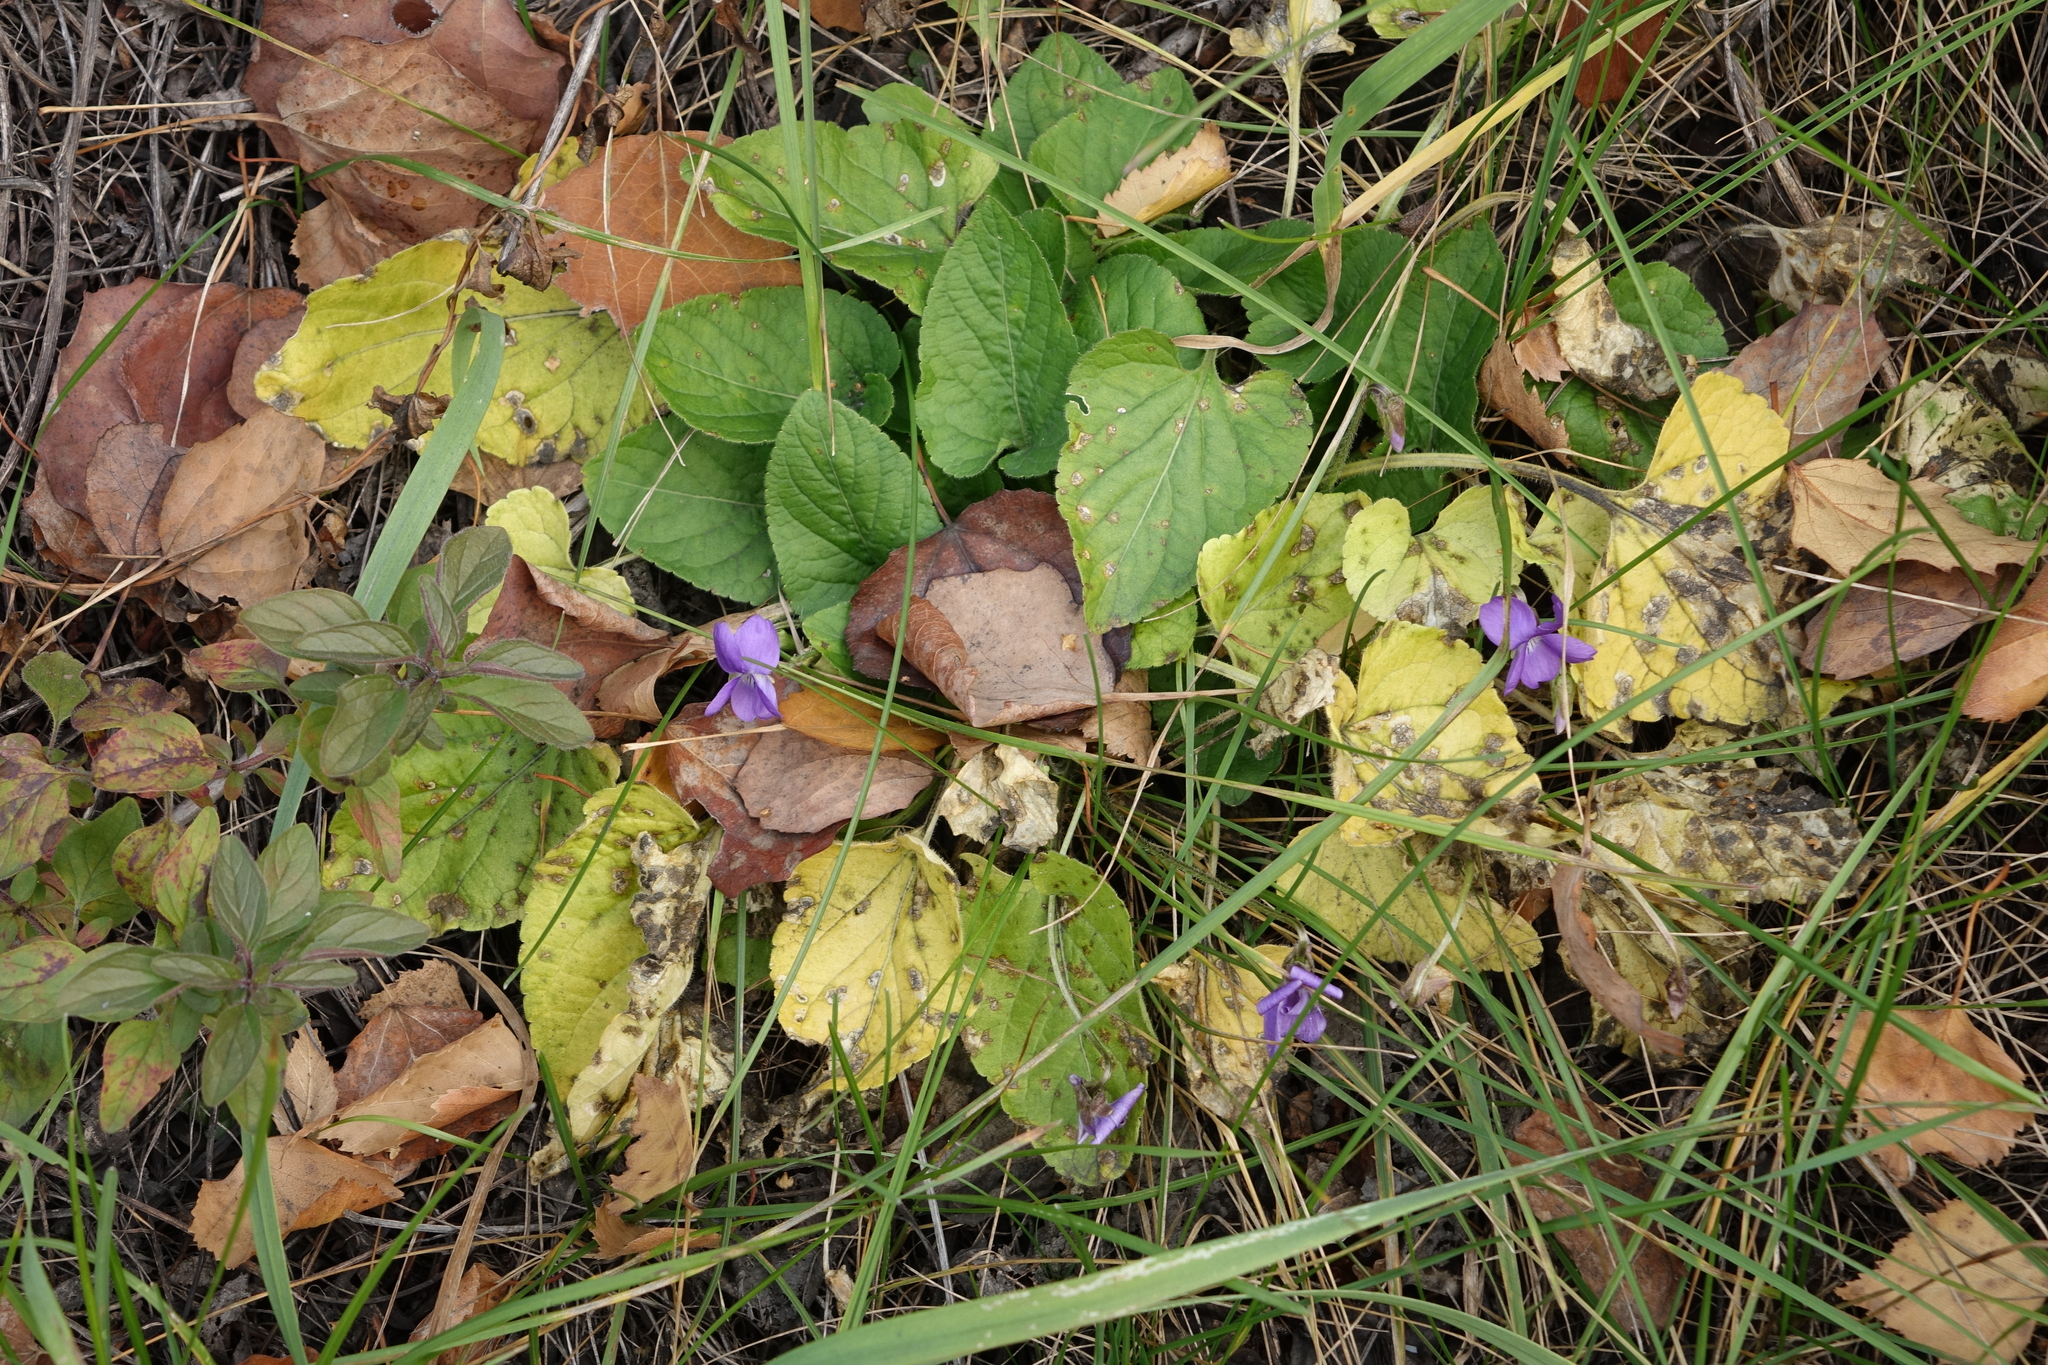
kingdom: Plantae
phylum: Tracheophyta
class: Magnoliopsida
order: Malpighiales
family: Violaceae
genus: Viola
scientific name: Viola hirta
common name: Hairy violet
